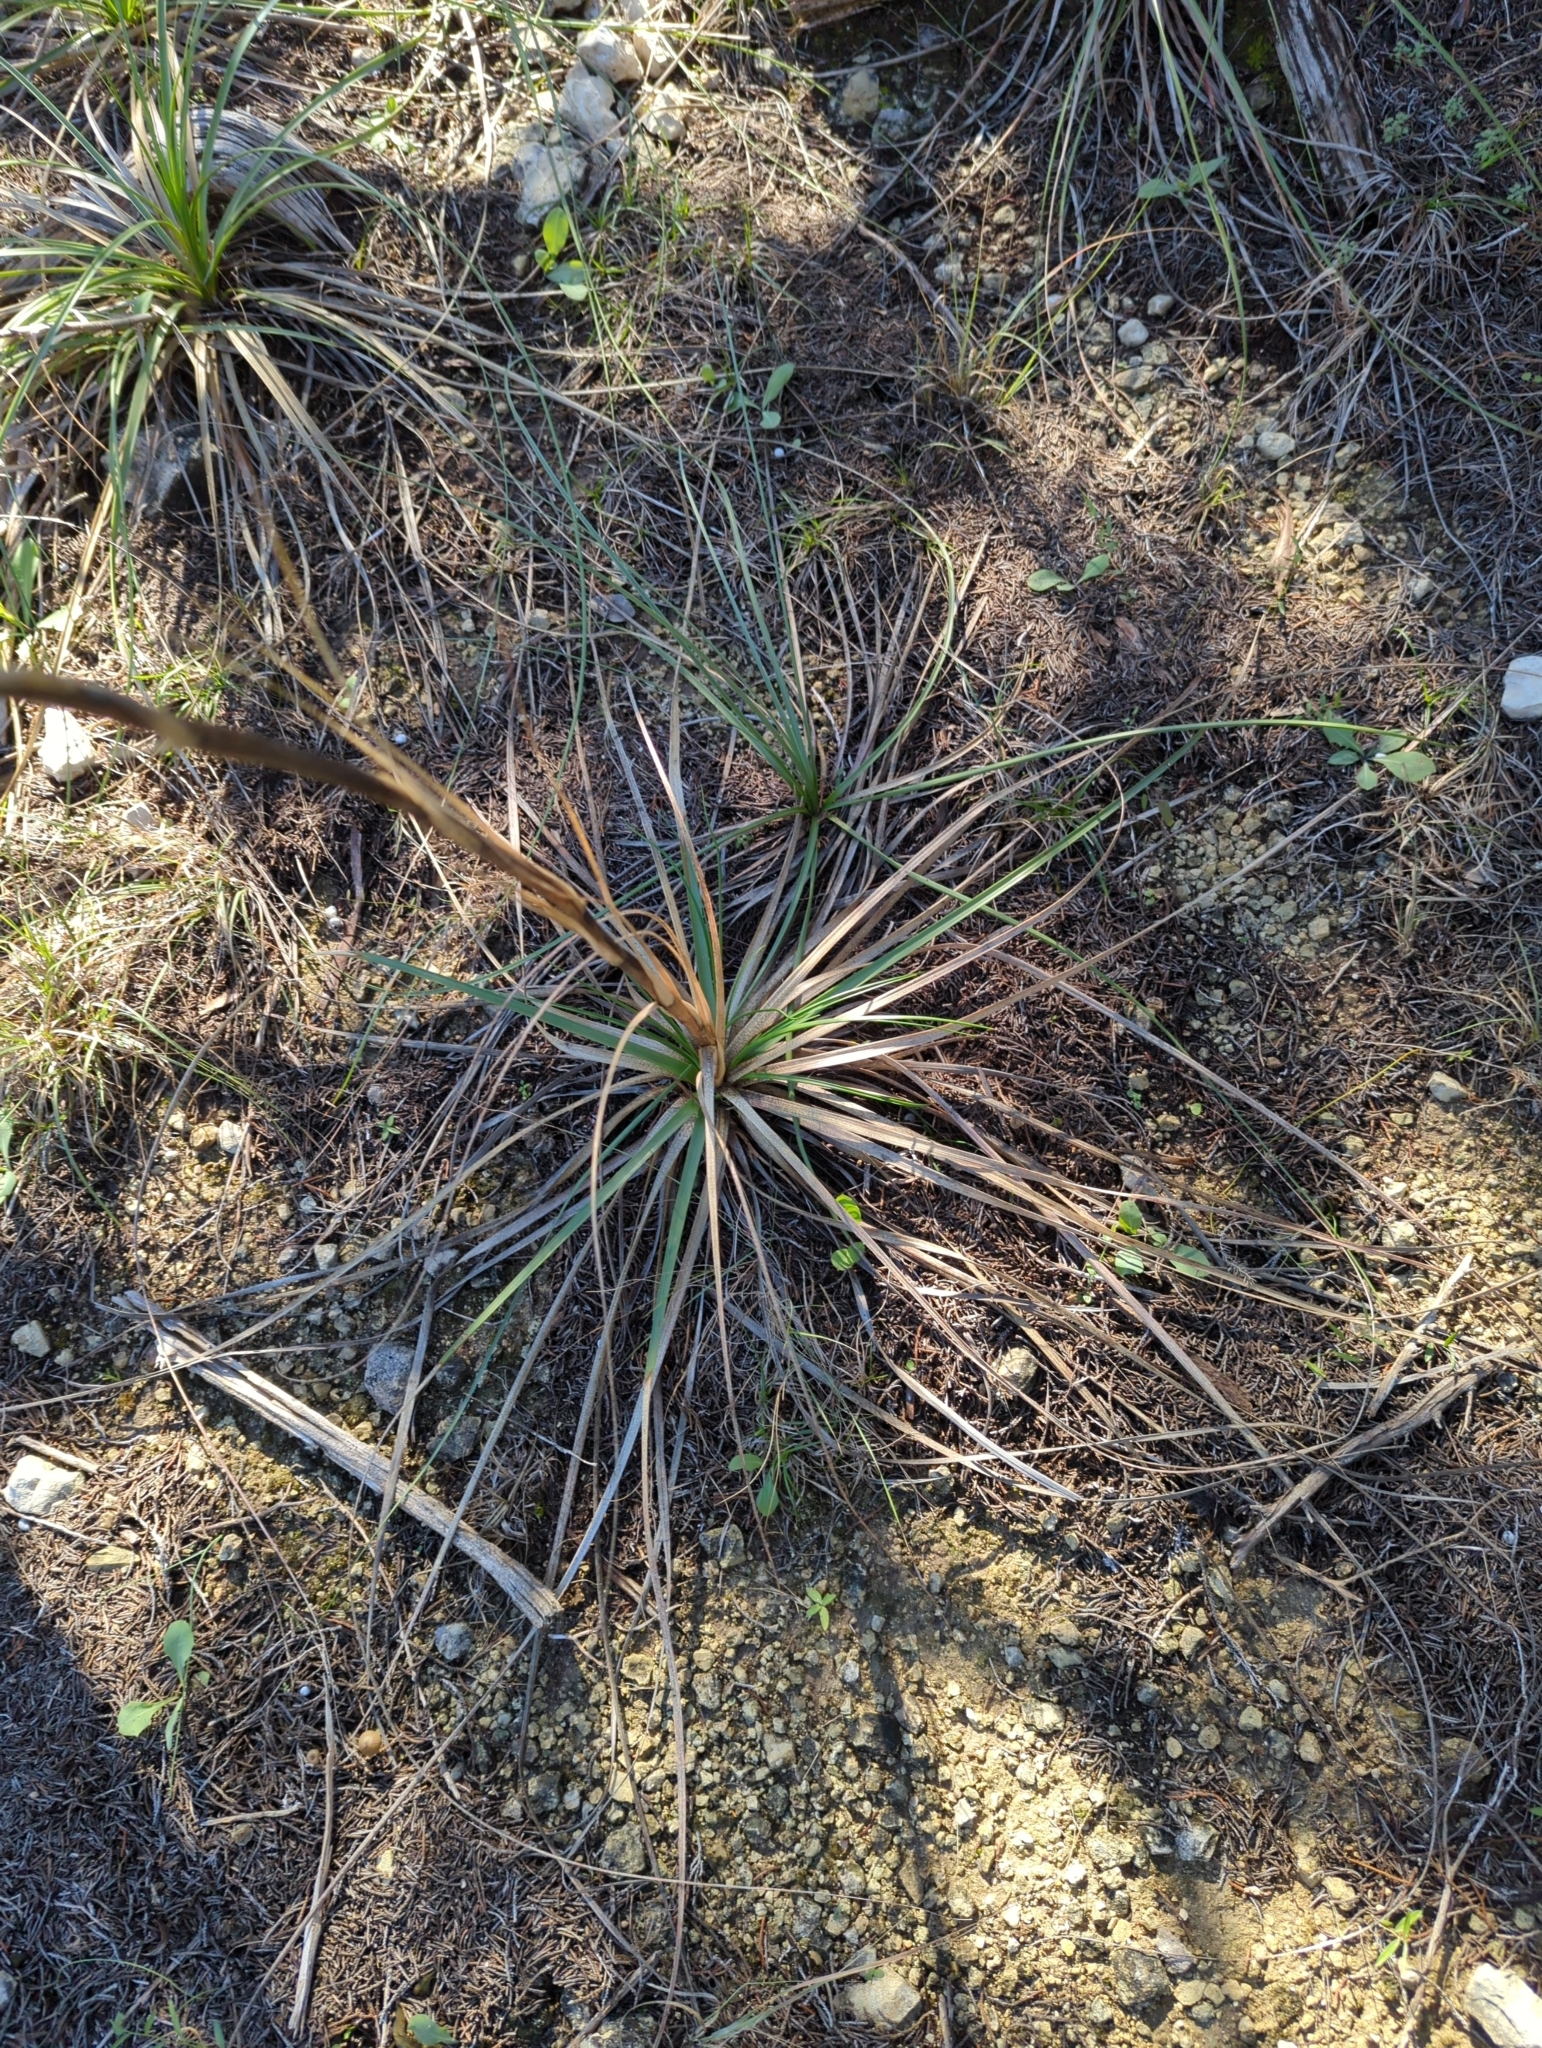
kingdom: Plantae
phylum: Tracheophyta
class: Liliopsida
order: Asparagales
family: Asparagaceae
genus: Nolina
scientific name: Nolina lindheimeriana
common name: Lindheimer's bear-grass
